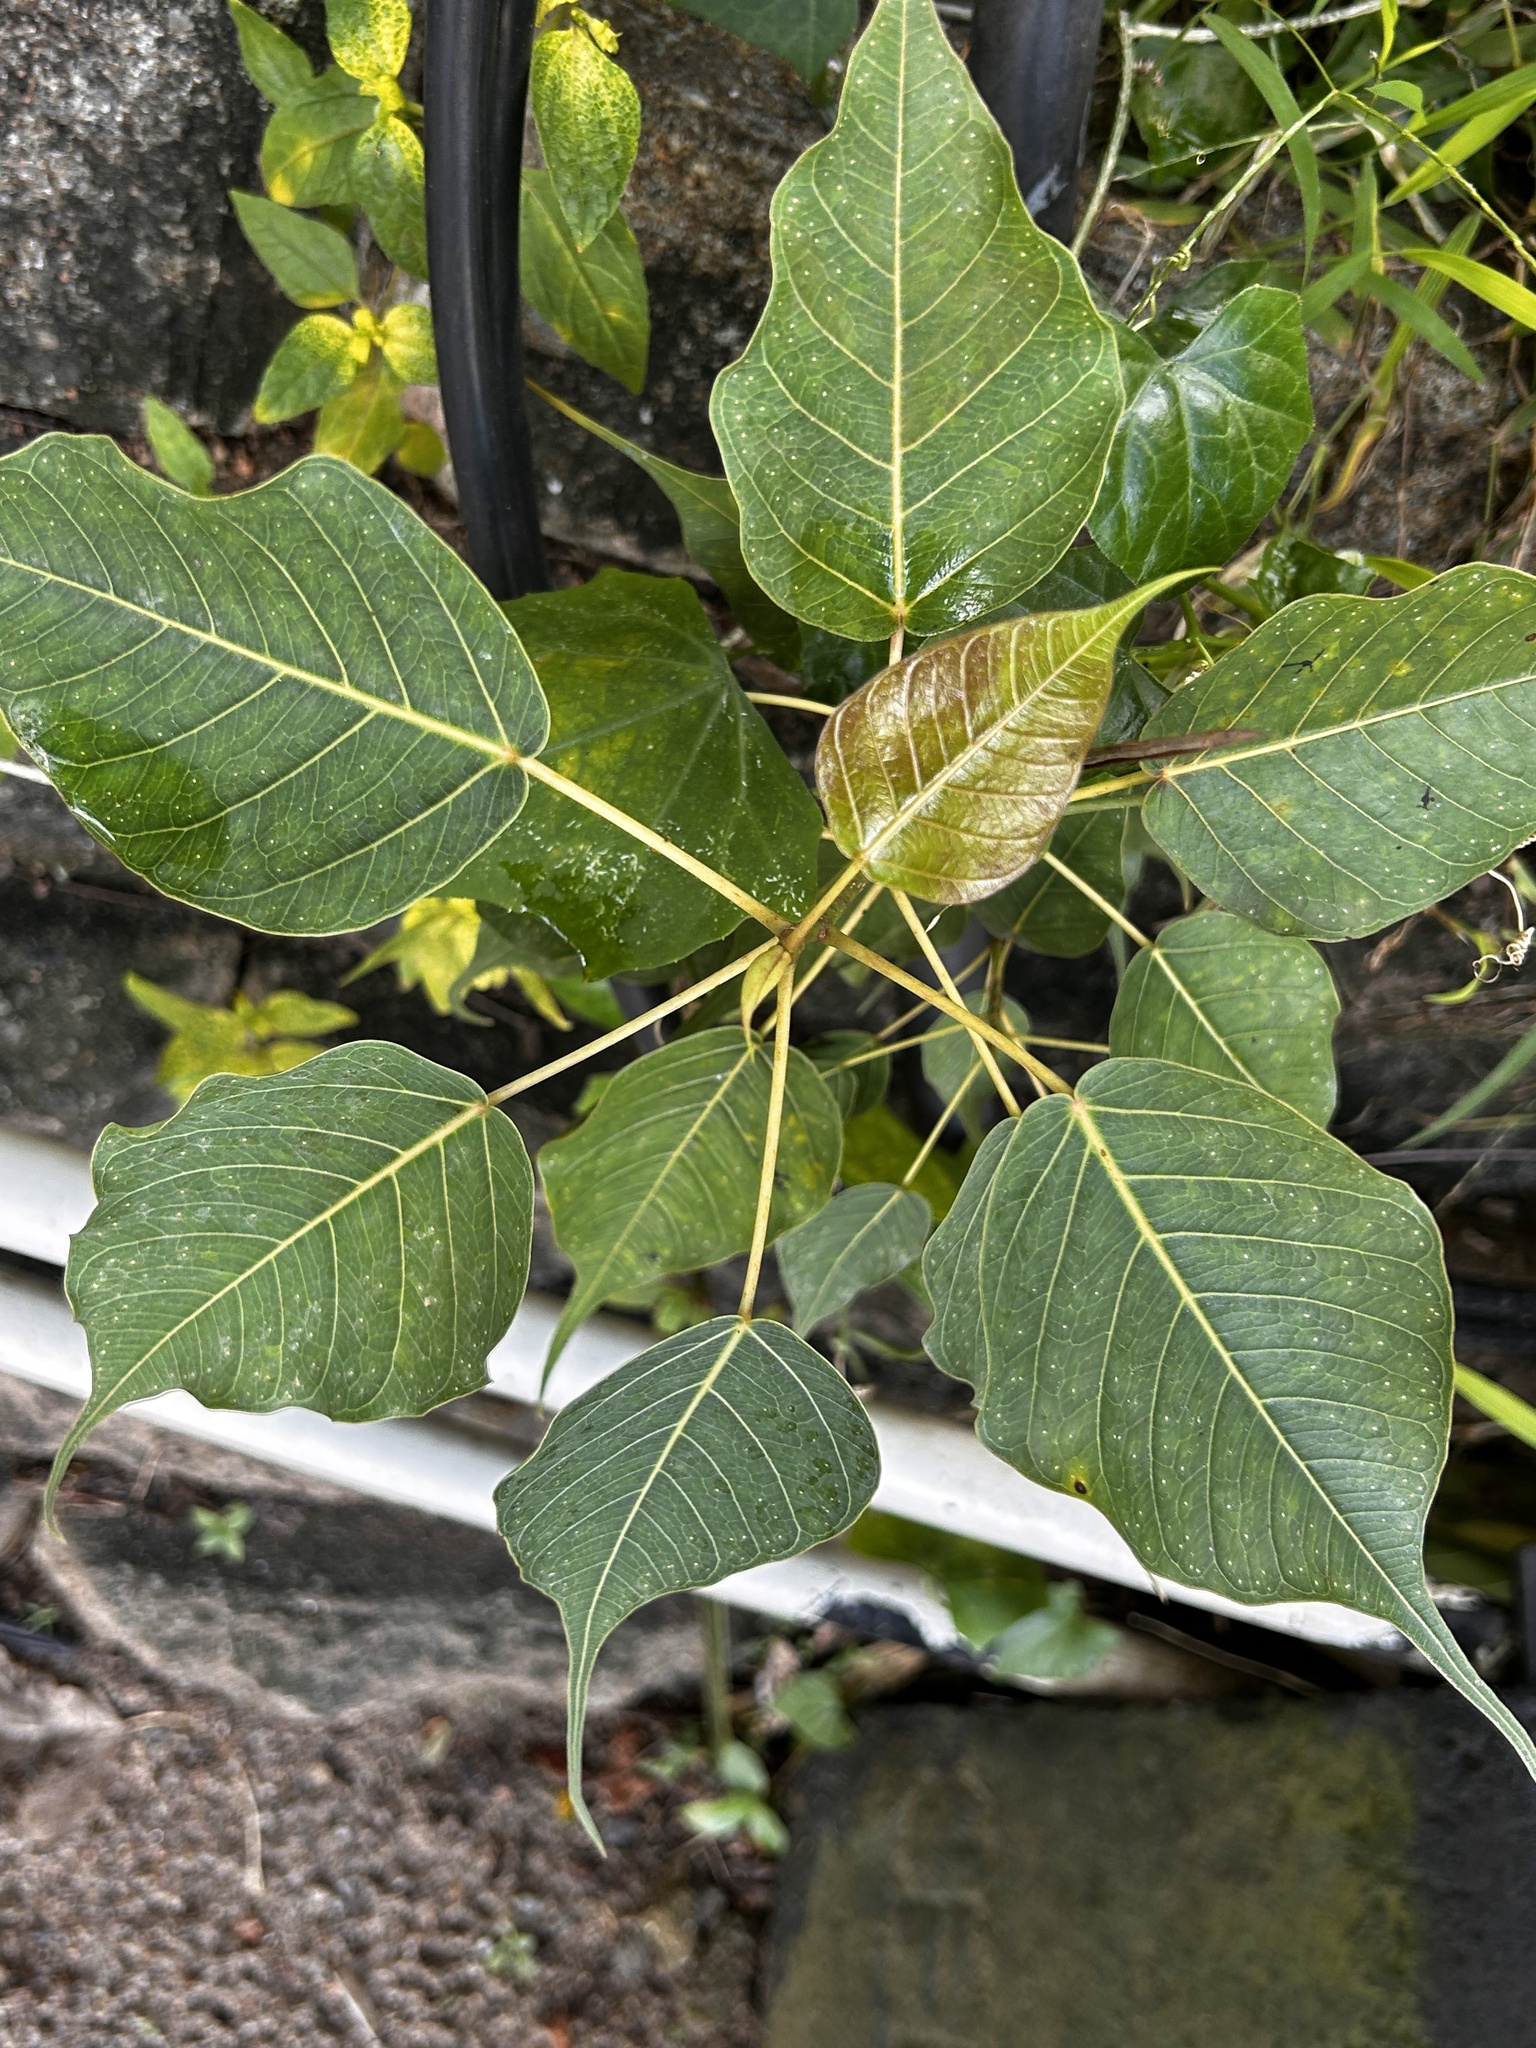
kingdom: Plantae
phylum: Tracheophyta
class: Magnoliopsida
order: Rosales
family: Moraceae
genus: Ficus
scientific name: Ficus religiosa
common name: Bodhi tree
